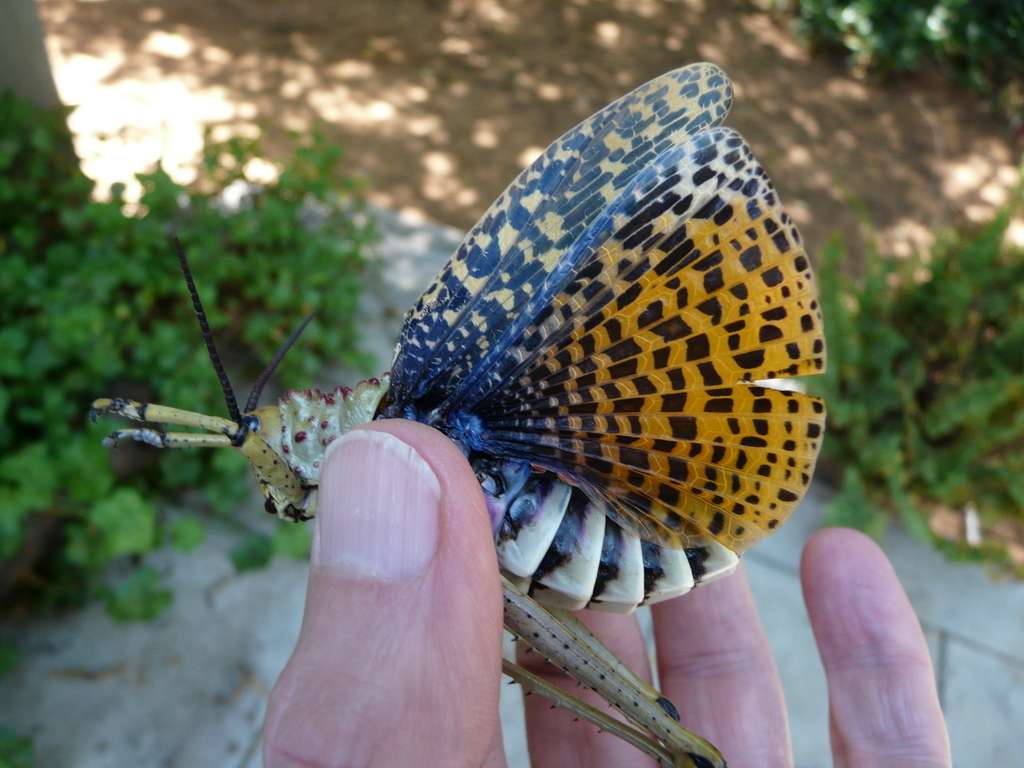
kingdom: Animalia
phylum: Arthropoda
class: Insecta
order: Orthoptera
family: Pyrgomorphidae
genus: Phymateus
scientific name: Phymateus baccatus
